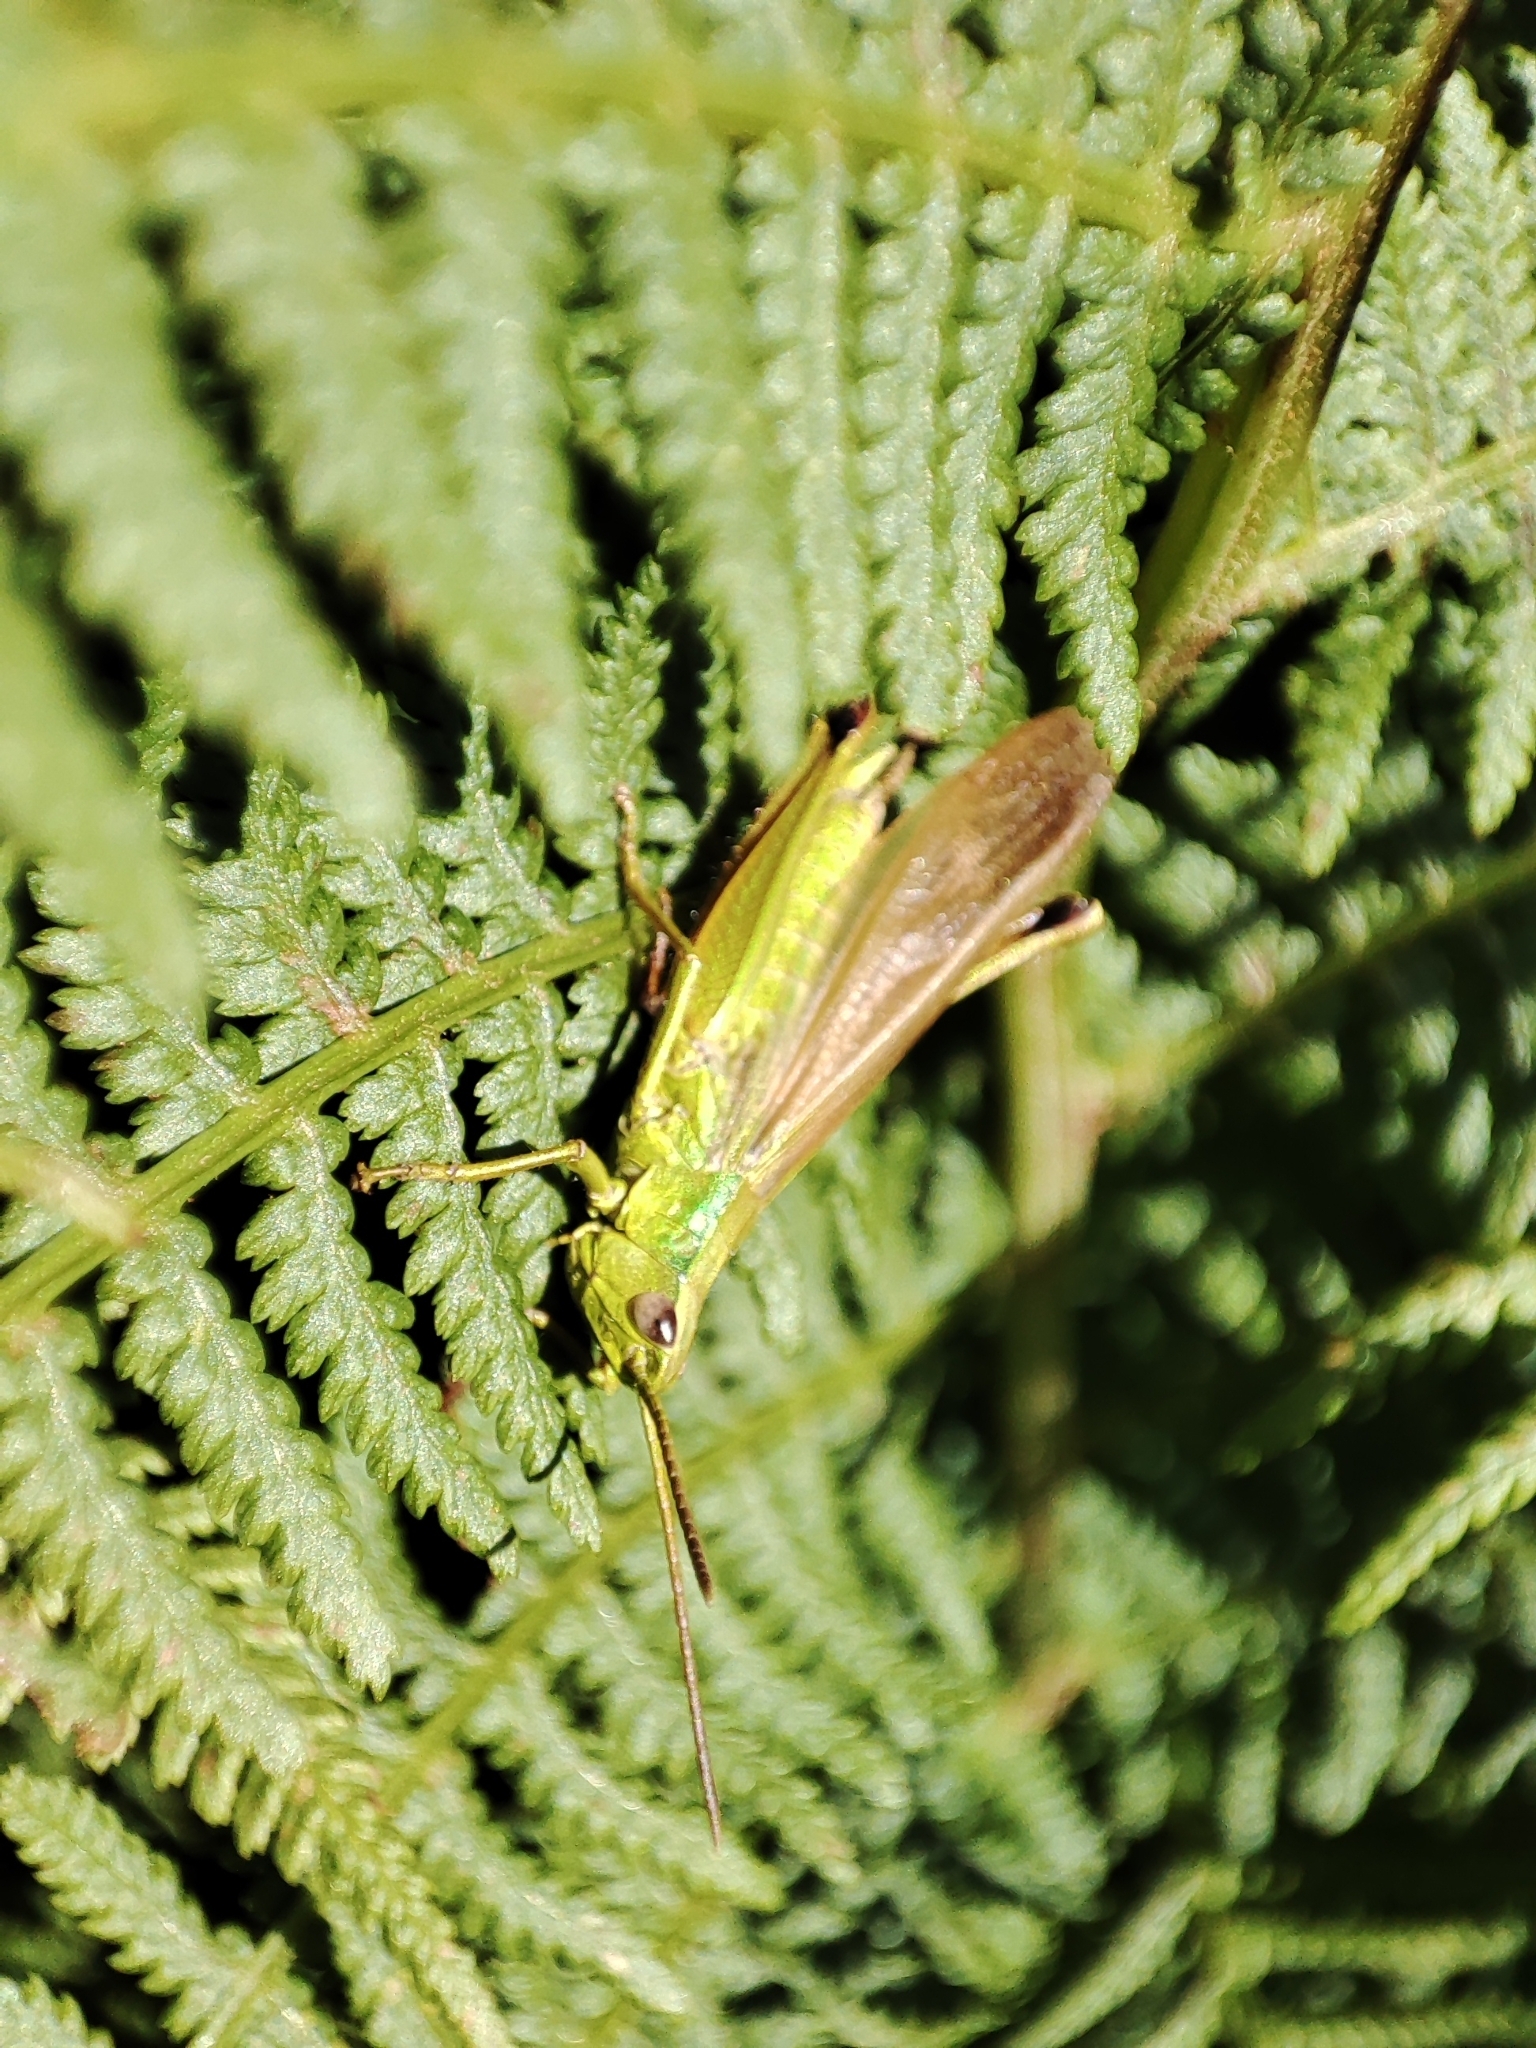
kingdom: Animalia
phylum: Arthropoda
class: Insecta
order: Orthoptera
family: Acrididae
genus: Chrysochraon
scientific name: Chrysochraon dispar
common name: Large gold grasshopper
